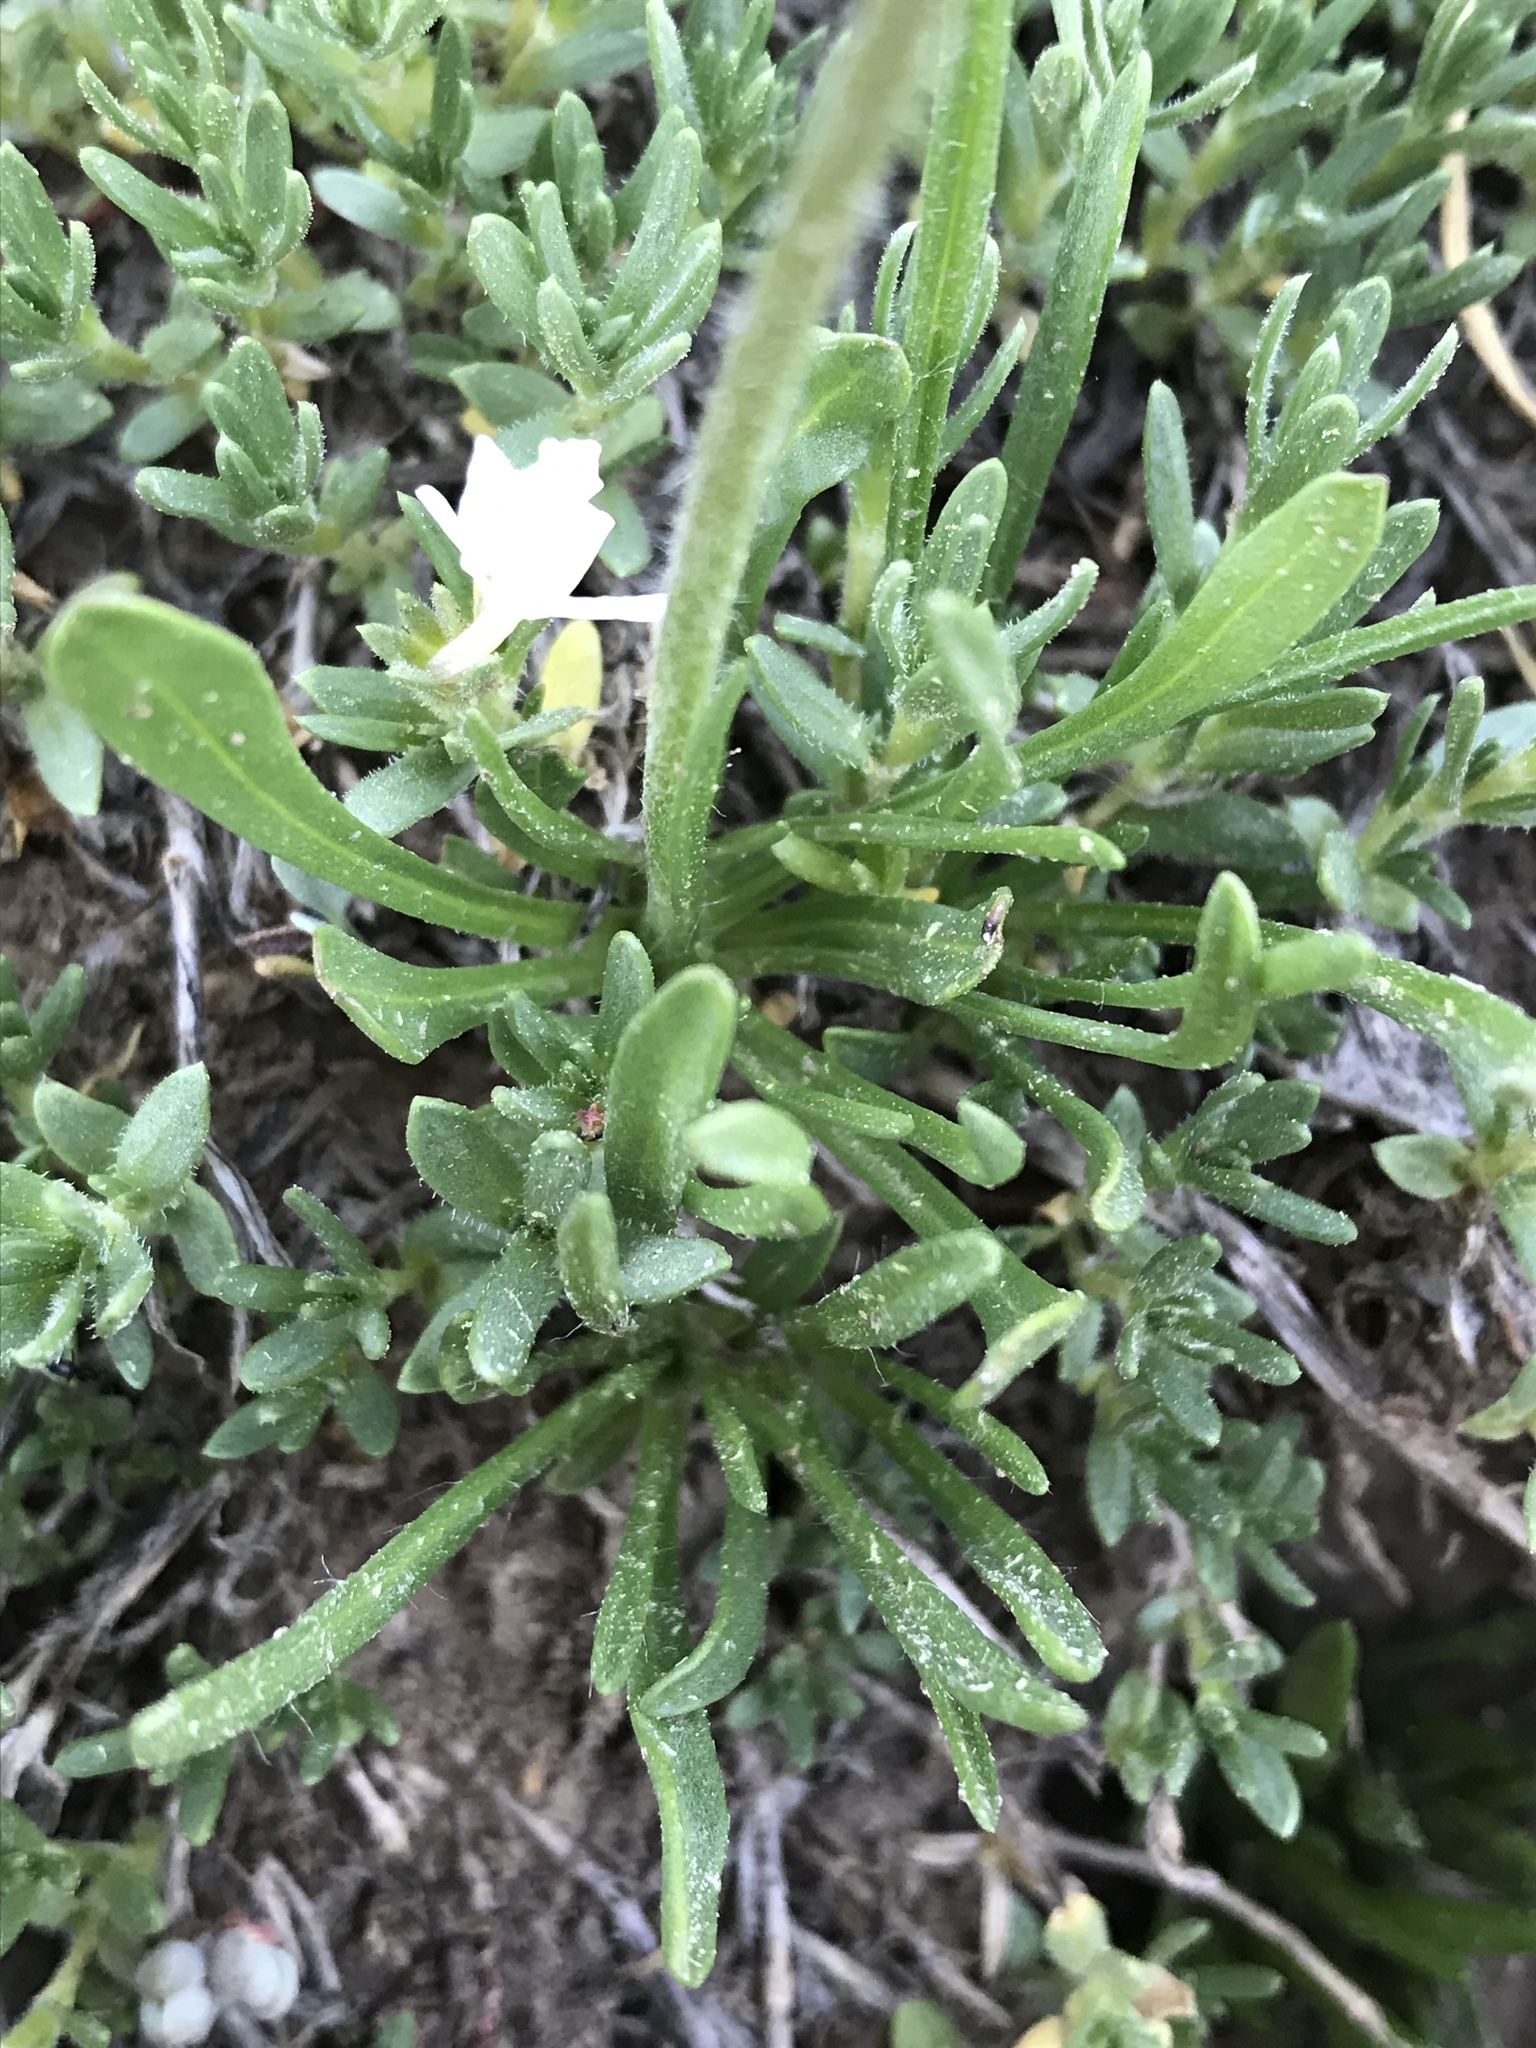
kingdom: Plantae
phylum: Tracheophyta
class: Magnoliopsida
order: Asterales
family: Asteraceae
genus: Tetraneuris
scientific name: Tetraneuris acaulis
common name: Butte marigold
